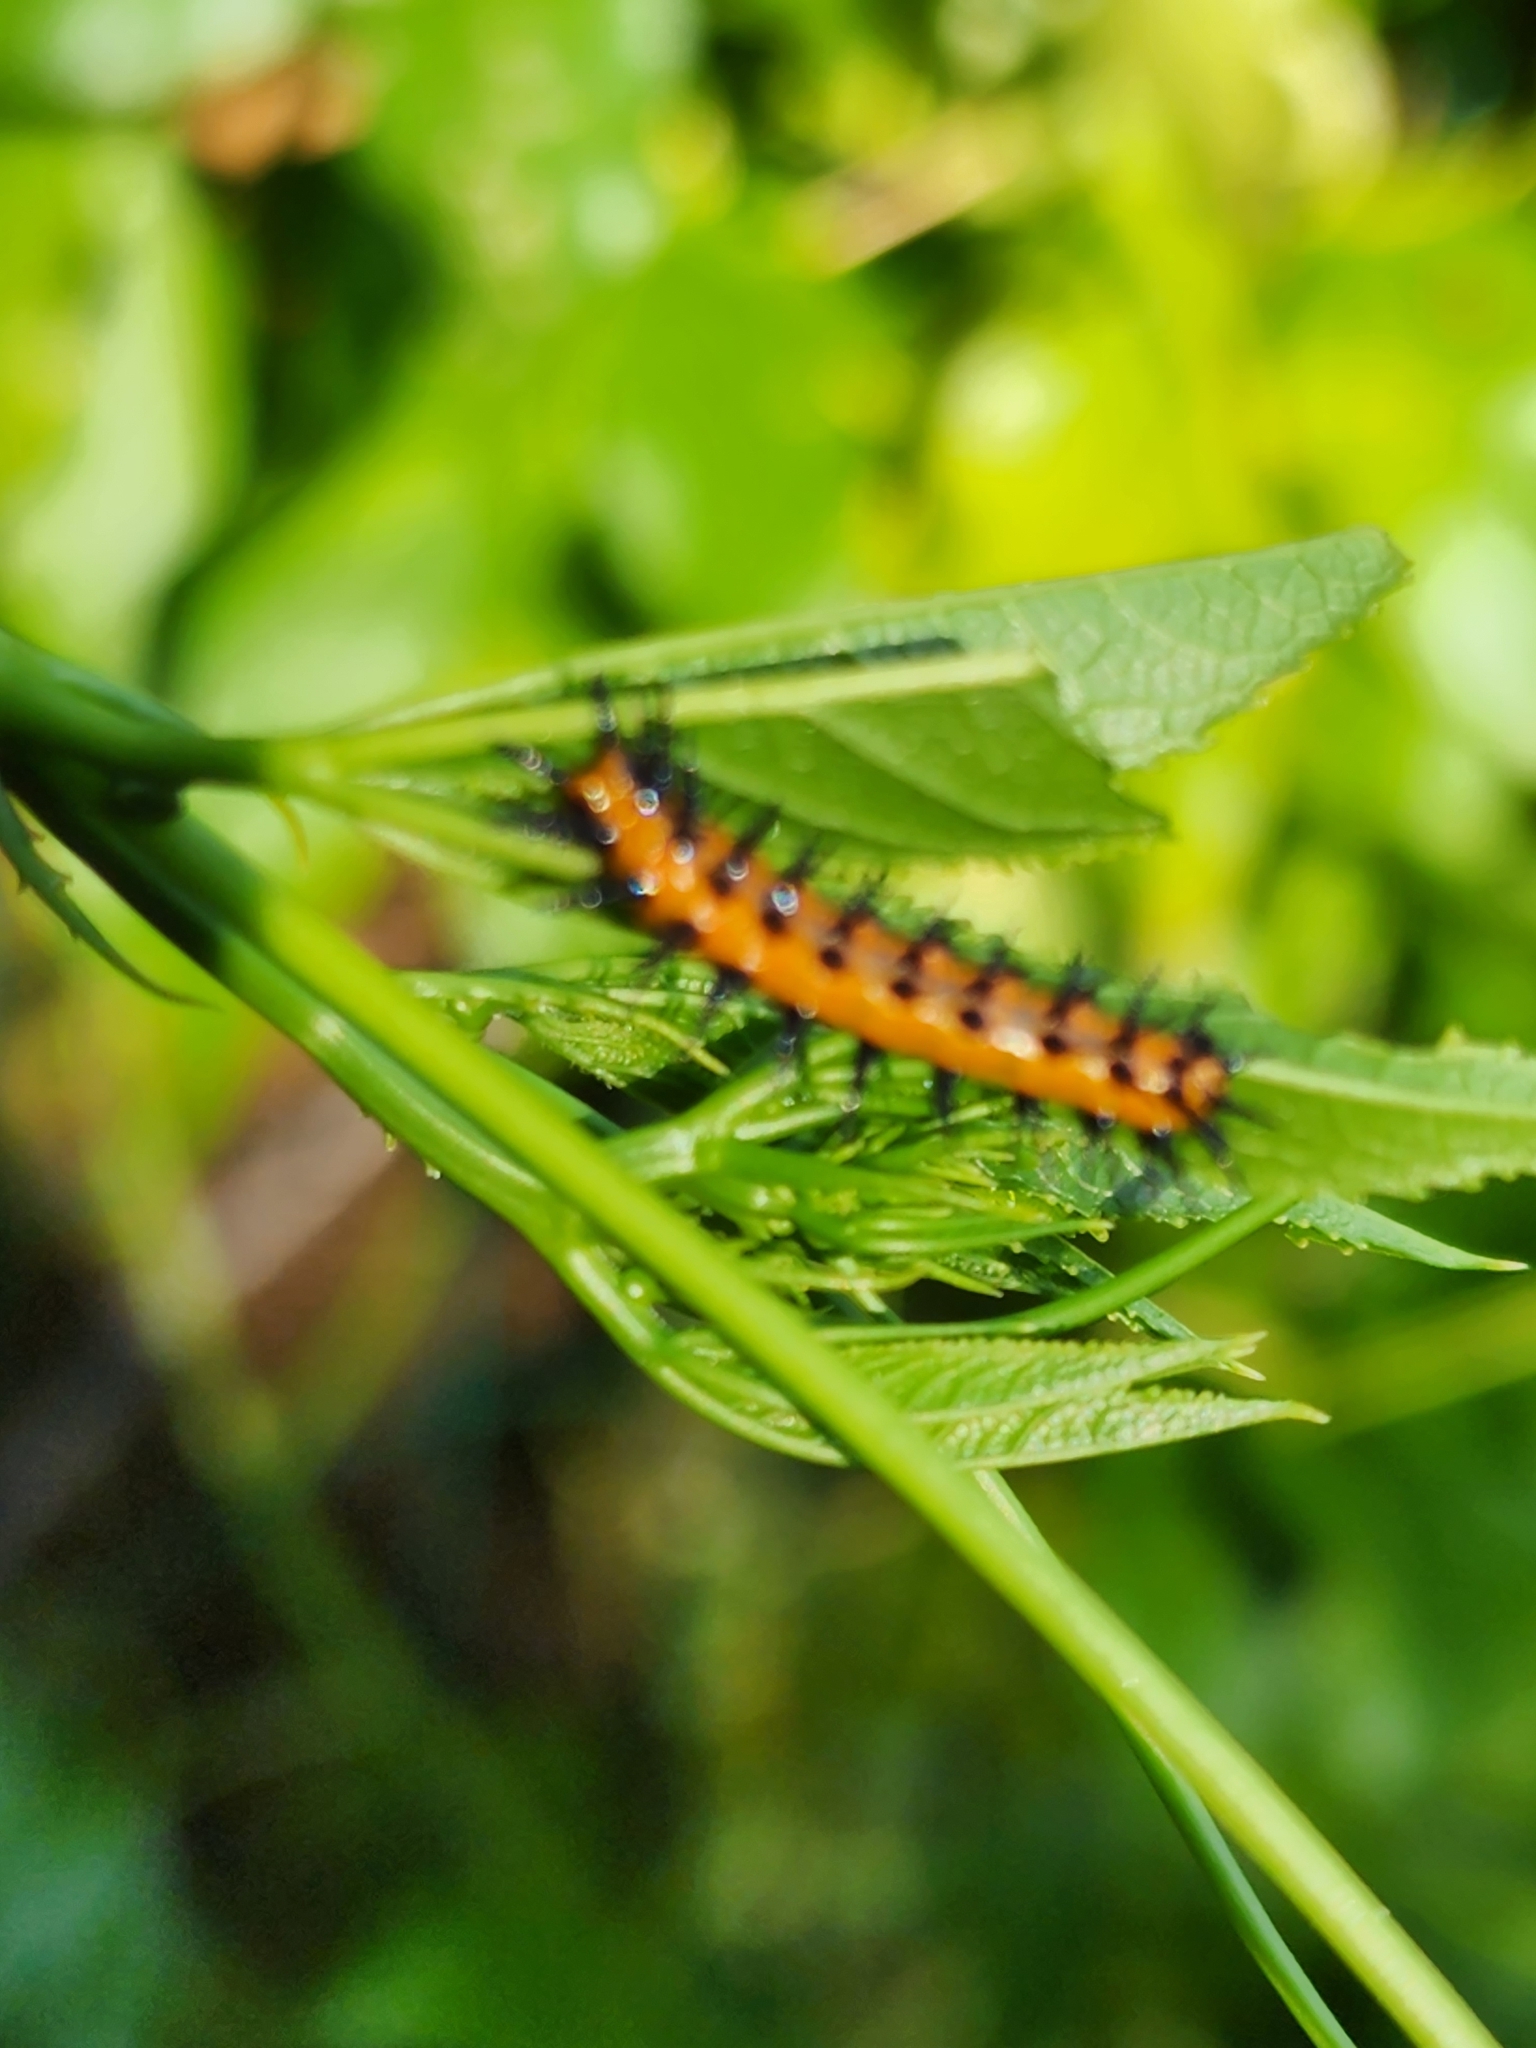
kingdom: Animalia
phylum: Arthropoda
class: Insecta
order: Lepidoptera
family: Nymphalidae
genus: Dione
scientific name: Dione vanillae
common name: Gulf fritillary
